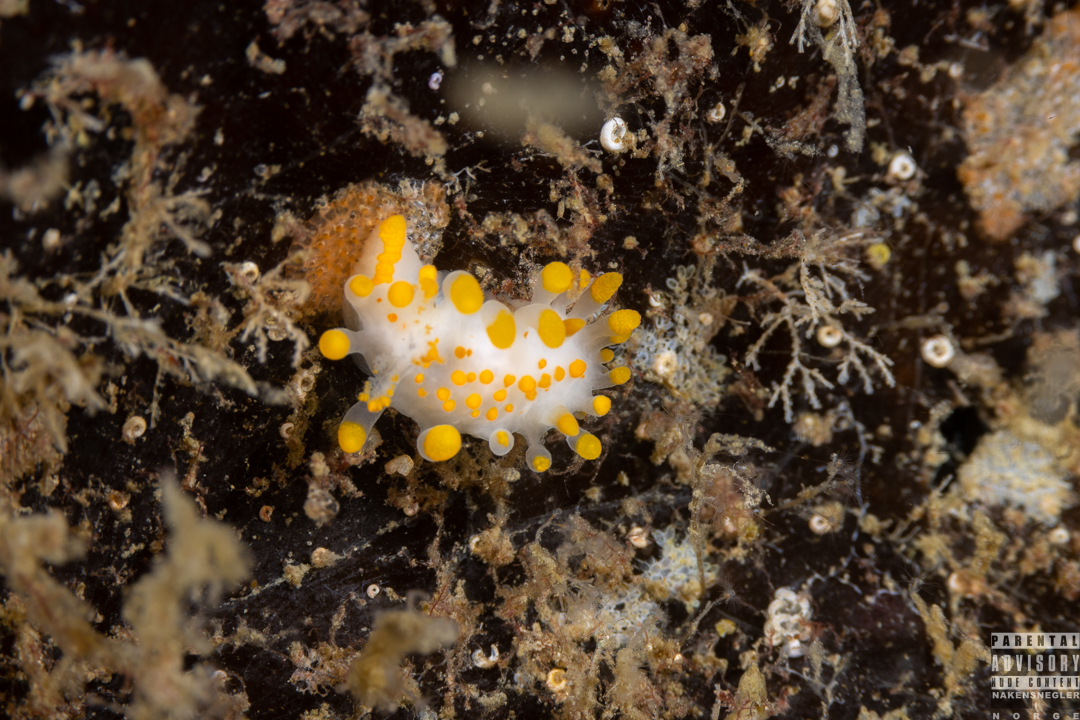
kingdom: Animalia
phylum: Mollusca
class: Gastropoda
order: Nudibranchia
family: Polyceridae
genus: Limacia
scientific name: Limacia clavigera
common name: Orange-clubbed sea slug
